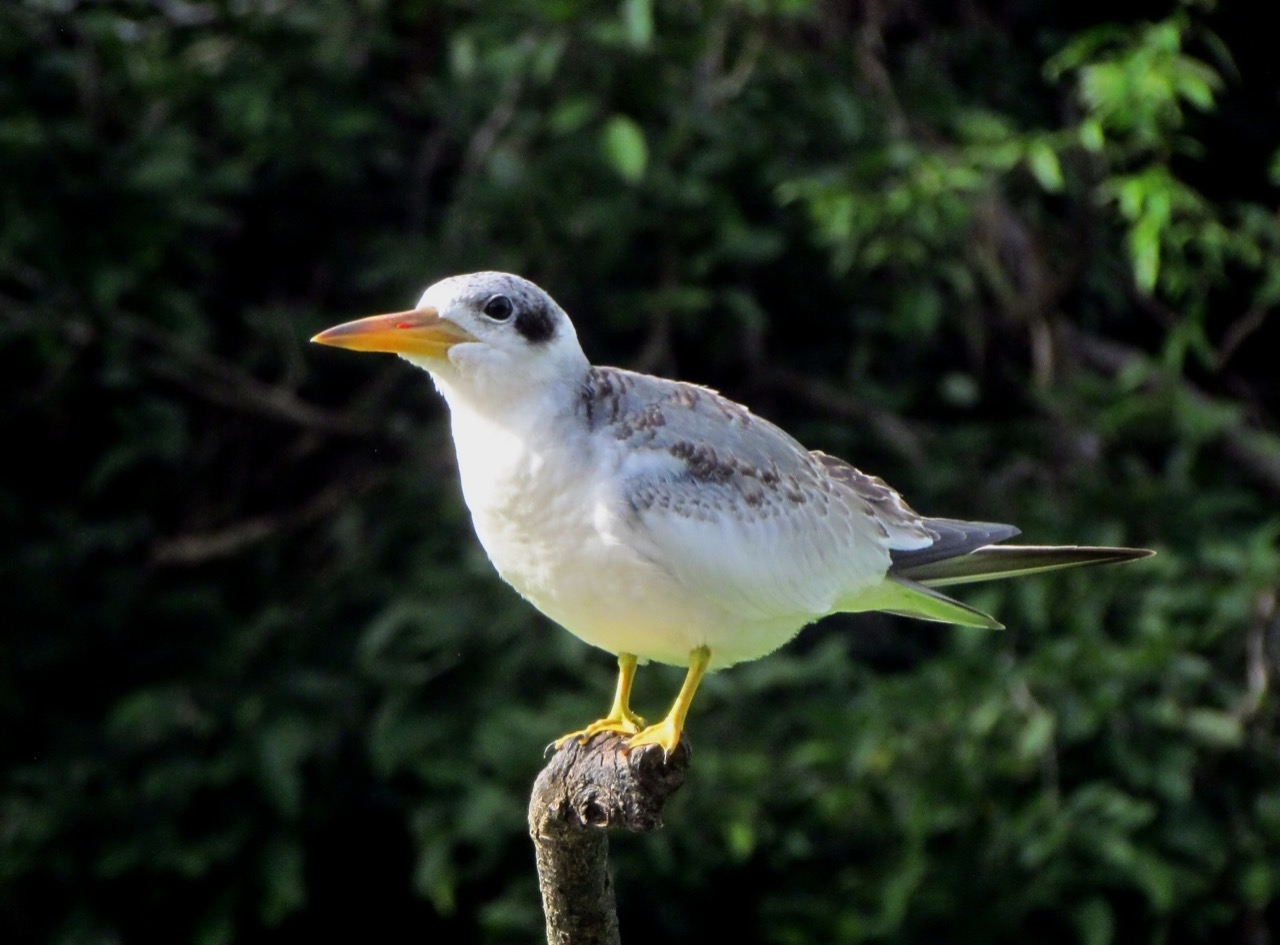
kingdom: Animalia
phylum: Chordata
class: Aves
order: Charadriiformes
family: Laridae
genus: Phaetusa
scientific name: Phaetusa simplex
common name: Large-billed tern
